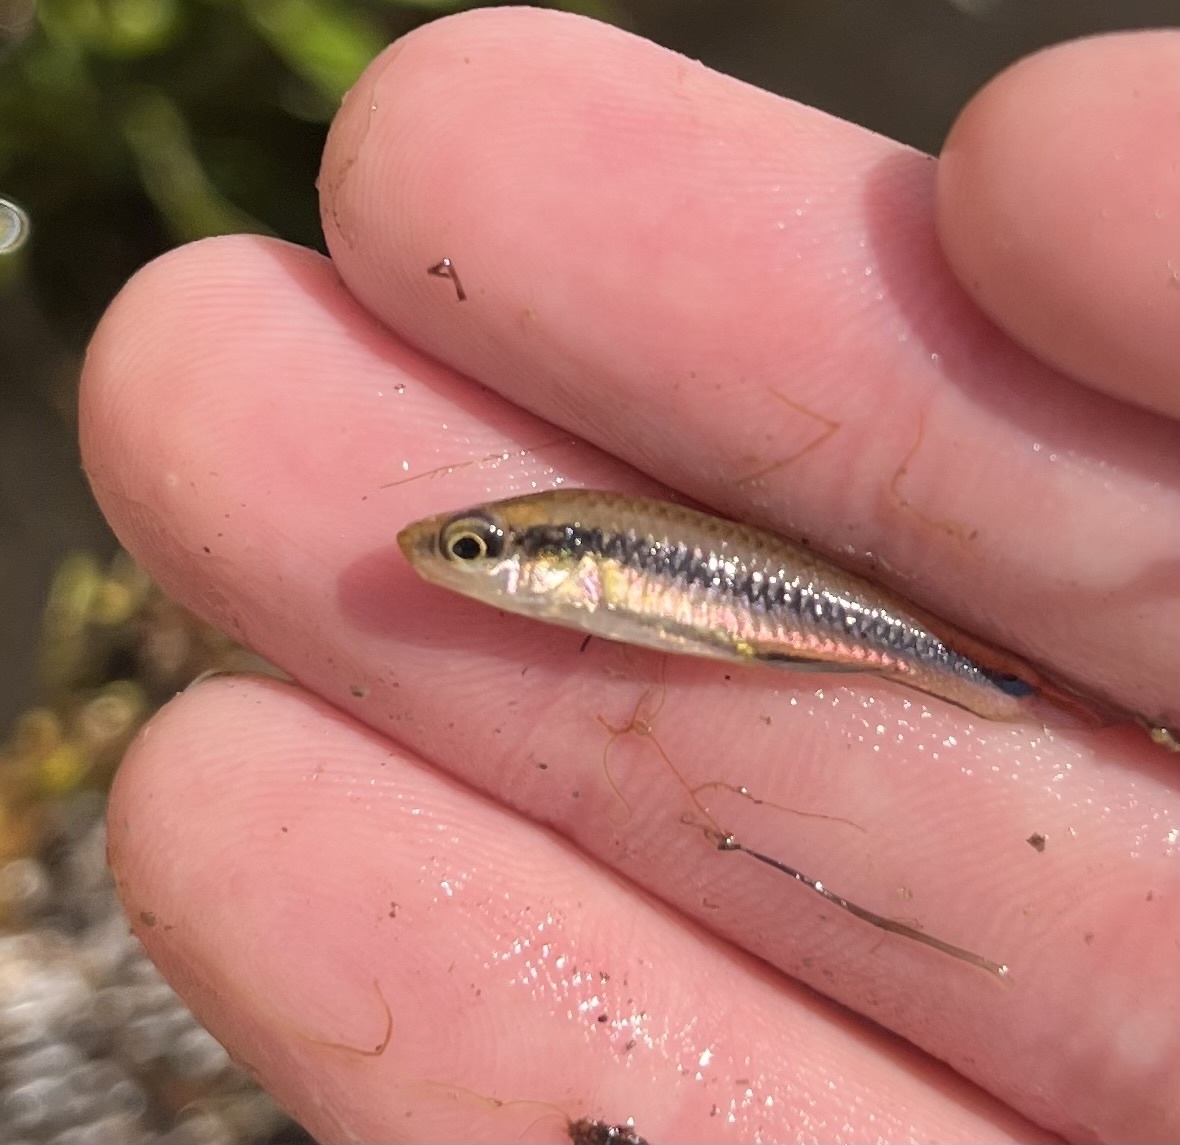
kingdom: Animalia
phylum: Chordata
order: Cyprinodontiformes
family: Fundulidae
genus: Lucania
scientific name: Lucania goodei
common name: Bluefin killifish
